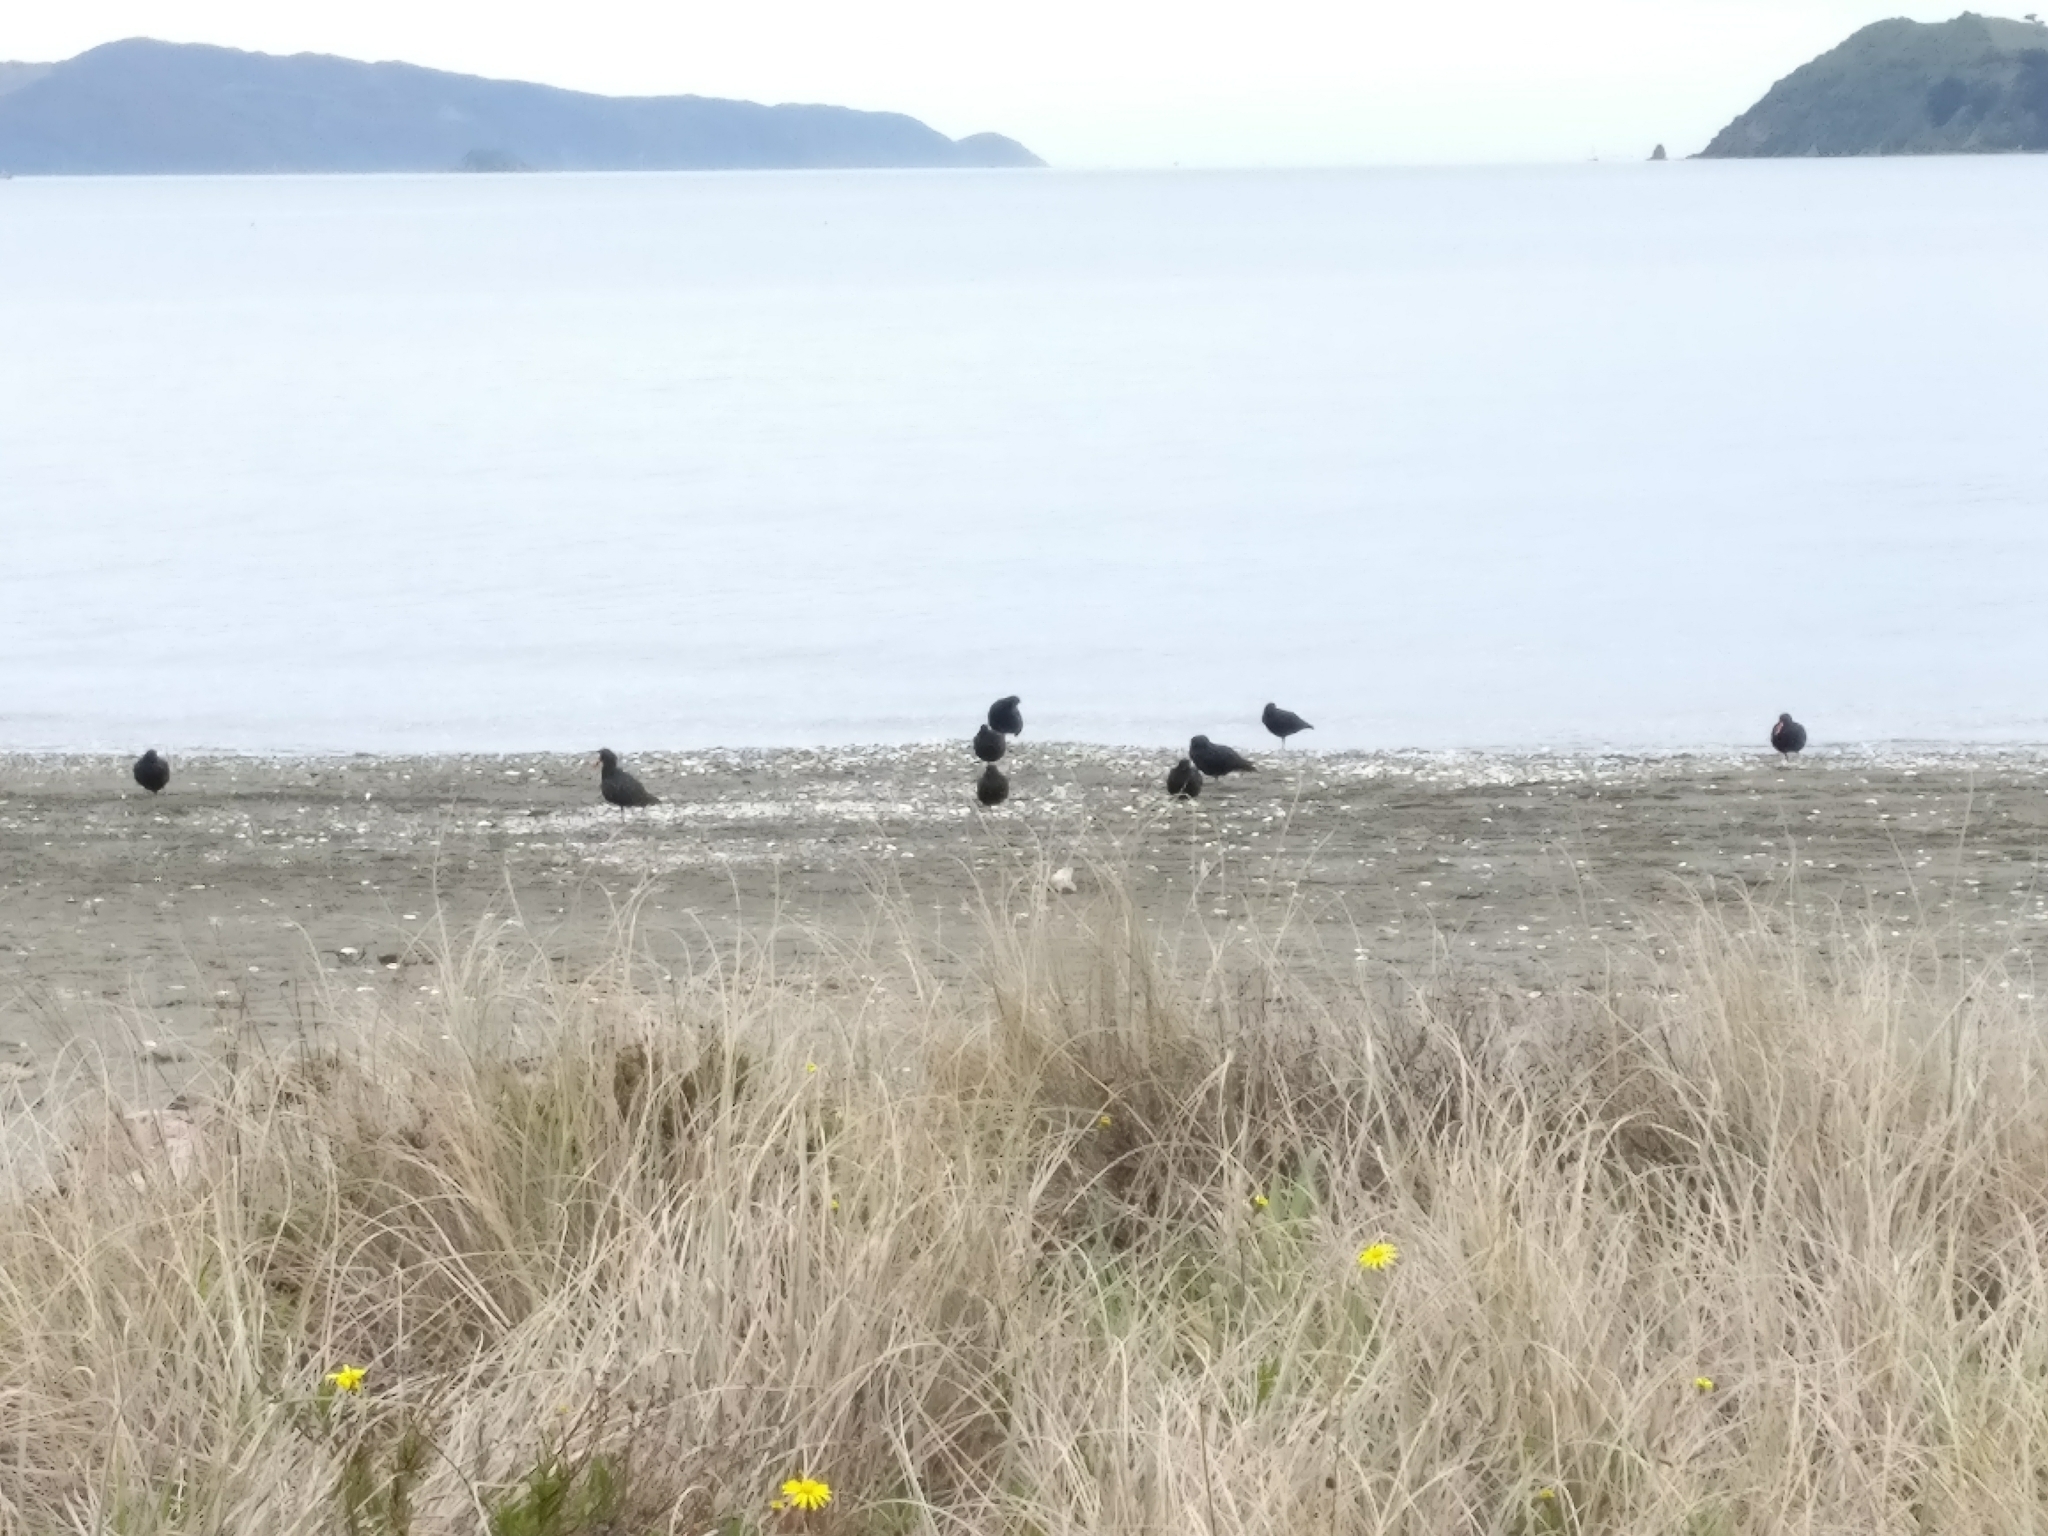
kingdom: Animalia
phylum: Chordata
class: Aves
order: Charadriiformes
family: Haematopodidae
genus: Haematopus
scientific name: Haematopus unicolor
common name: Variable oystercatcher
